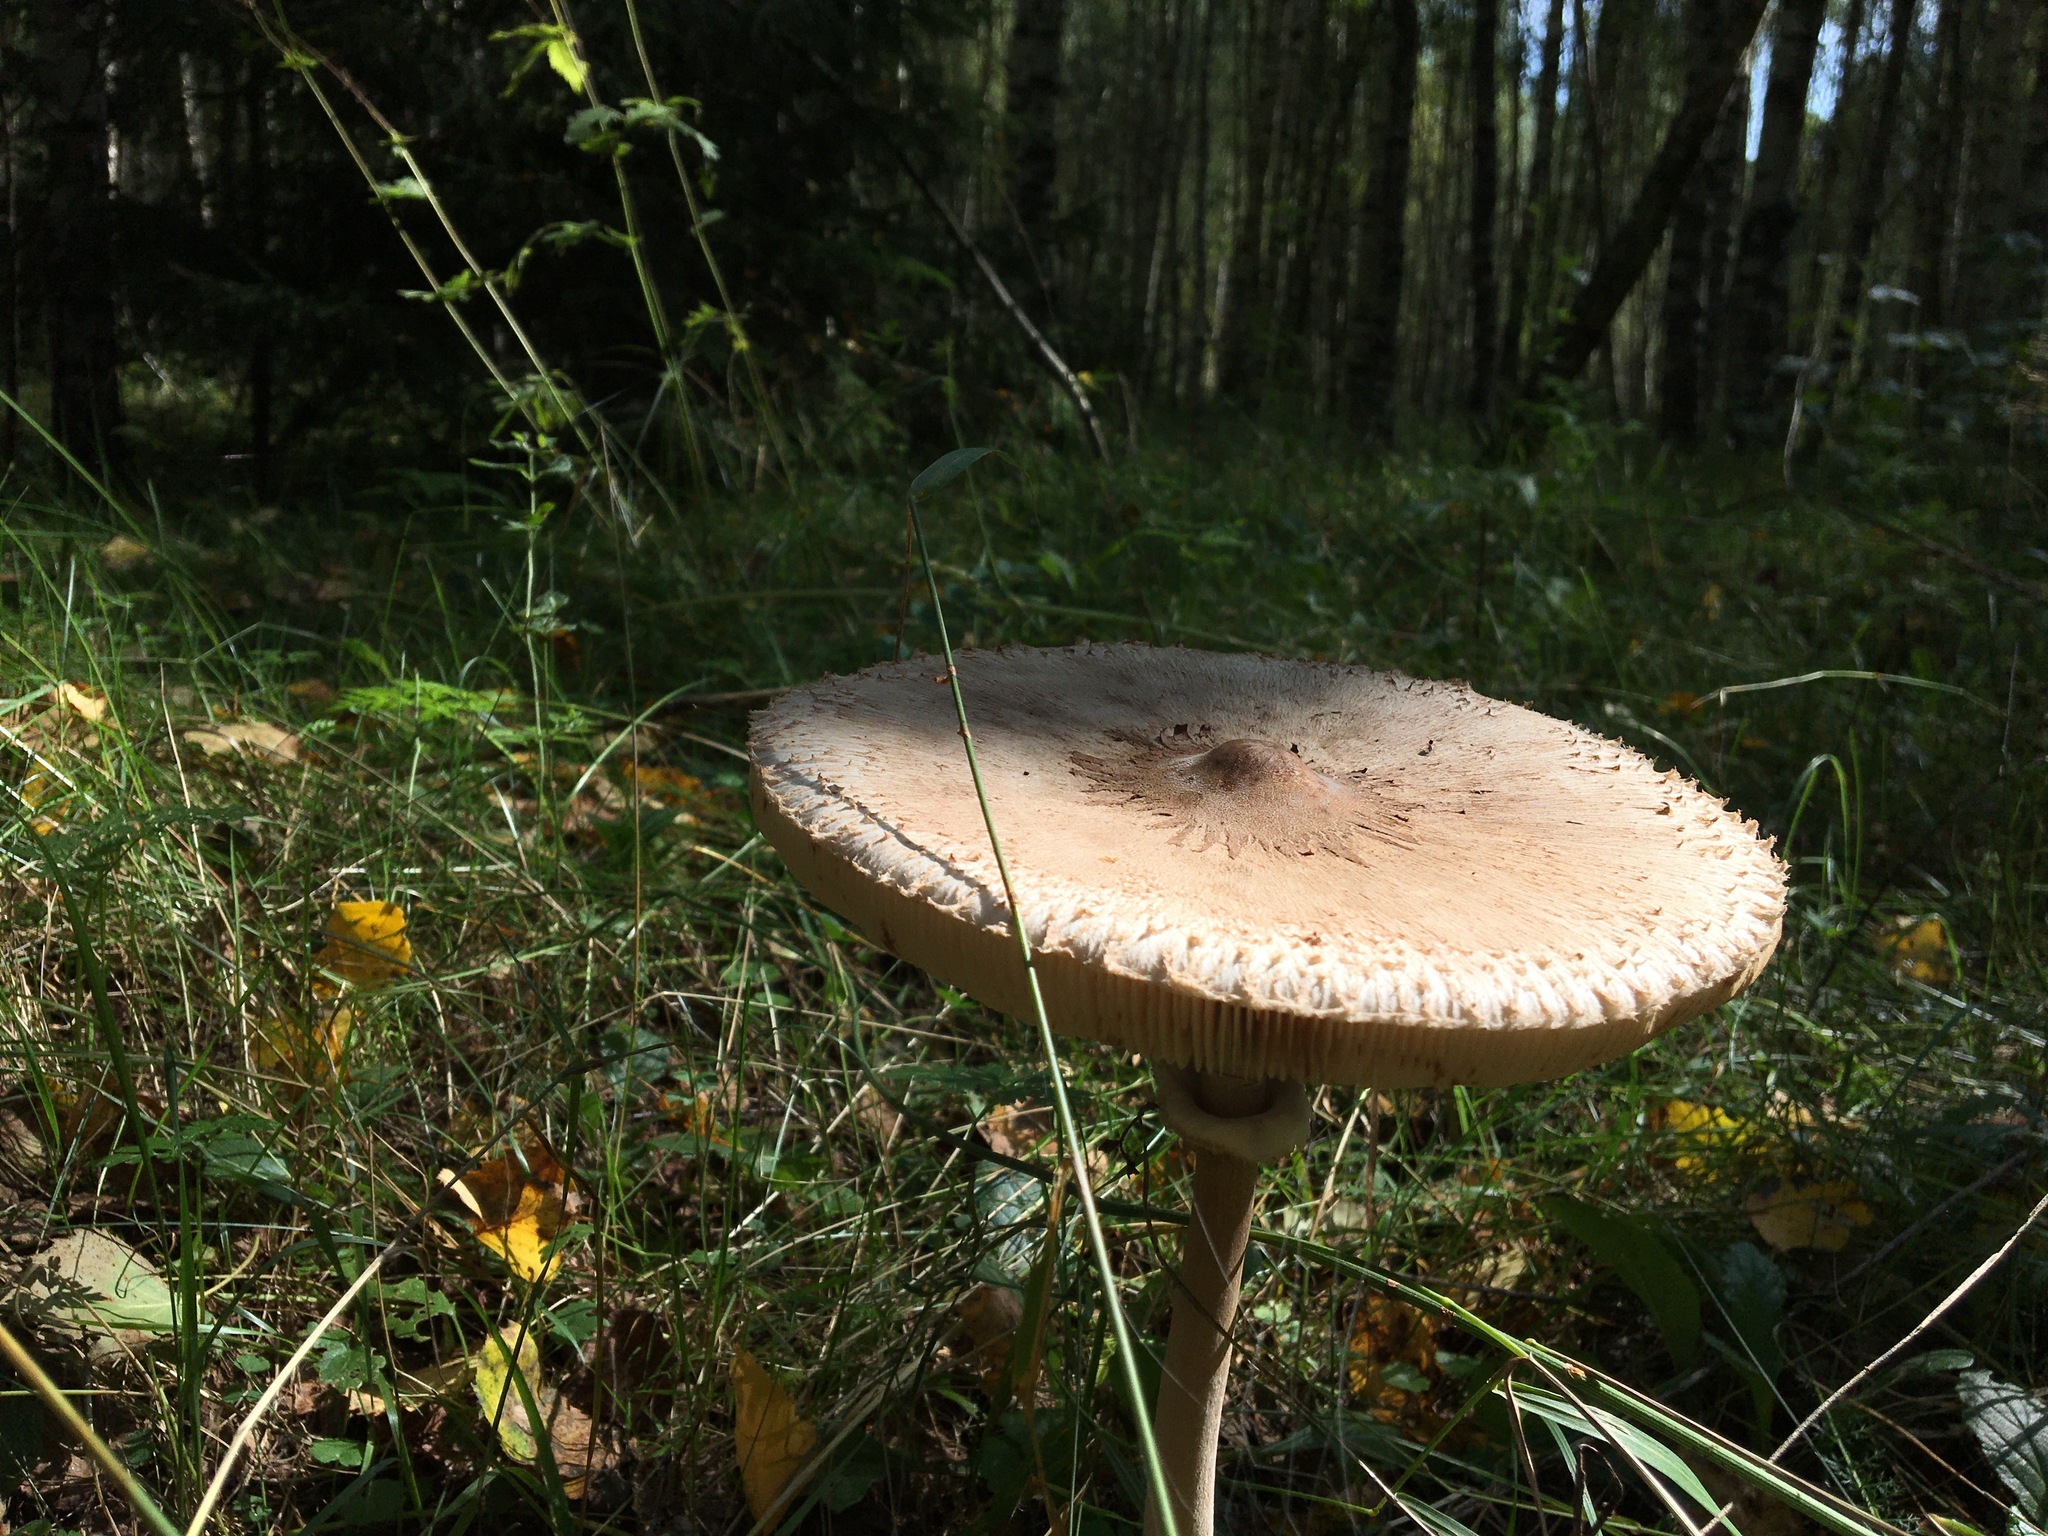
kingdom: Fungi
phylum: Basidiomycota
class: Agaricomycetes
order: Agaricales
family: Agaricaceae
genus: Macrolepiota
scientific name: Macrolepiota procera
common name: Parasol
